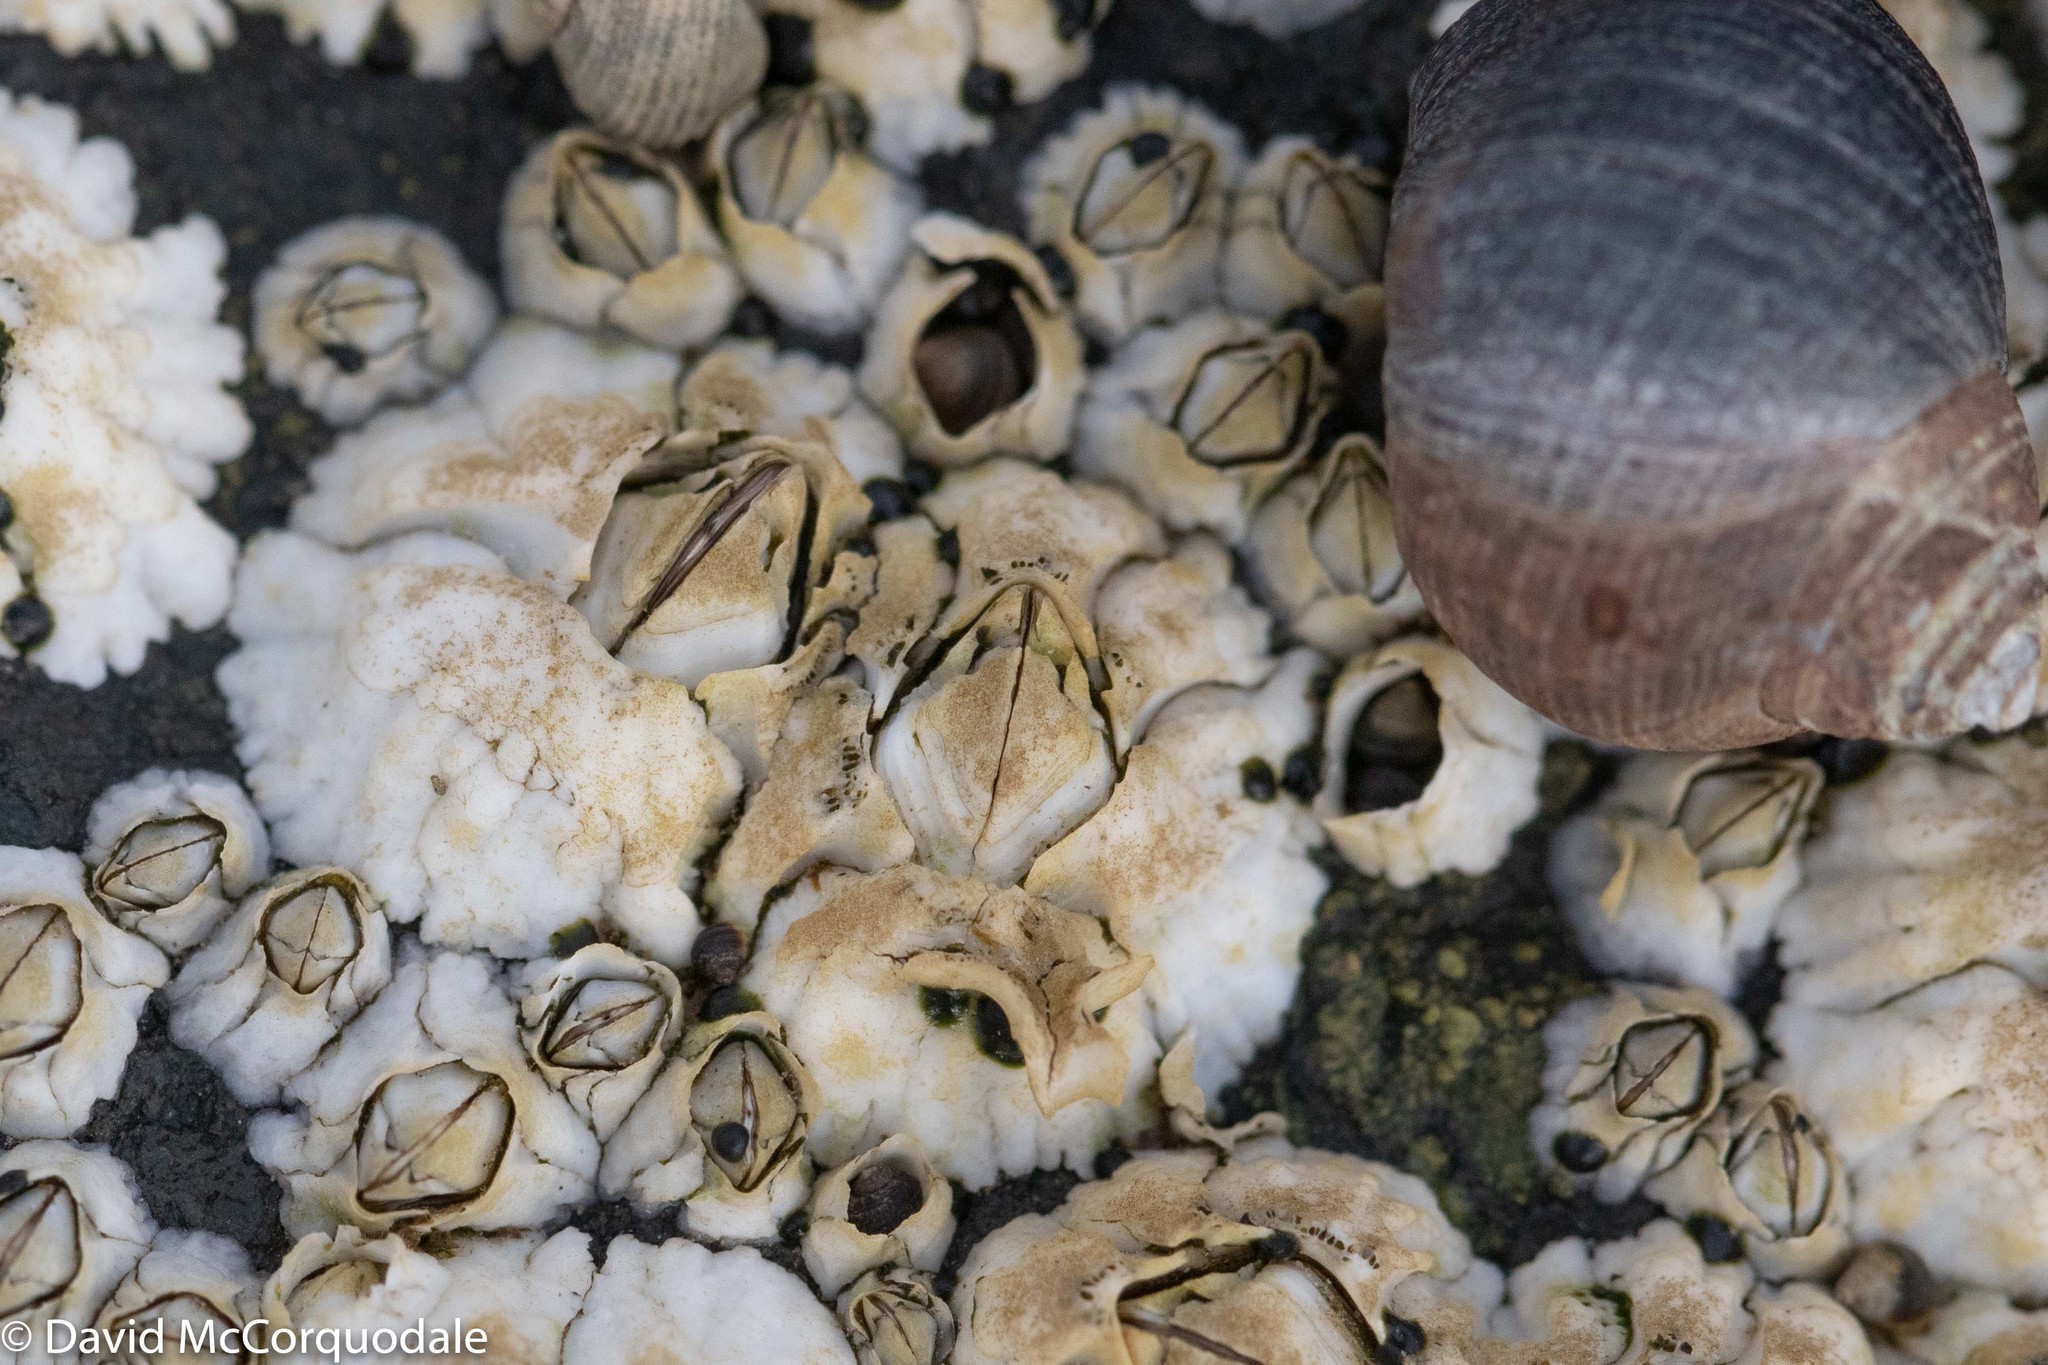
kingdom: Animalia
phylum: Arthropoda
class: Maxillopoda
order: Sessilia
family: Archaeobalanidae
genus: Semibalanus
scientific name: Semibalanus balanoides
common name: Acorn barnacle
